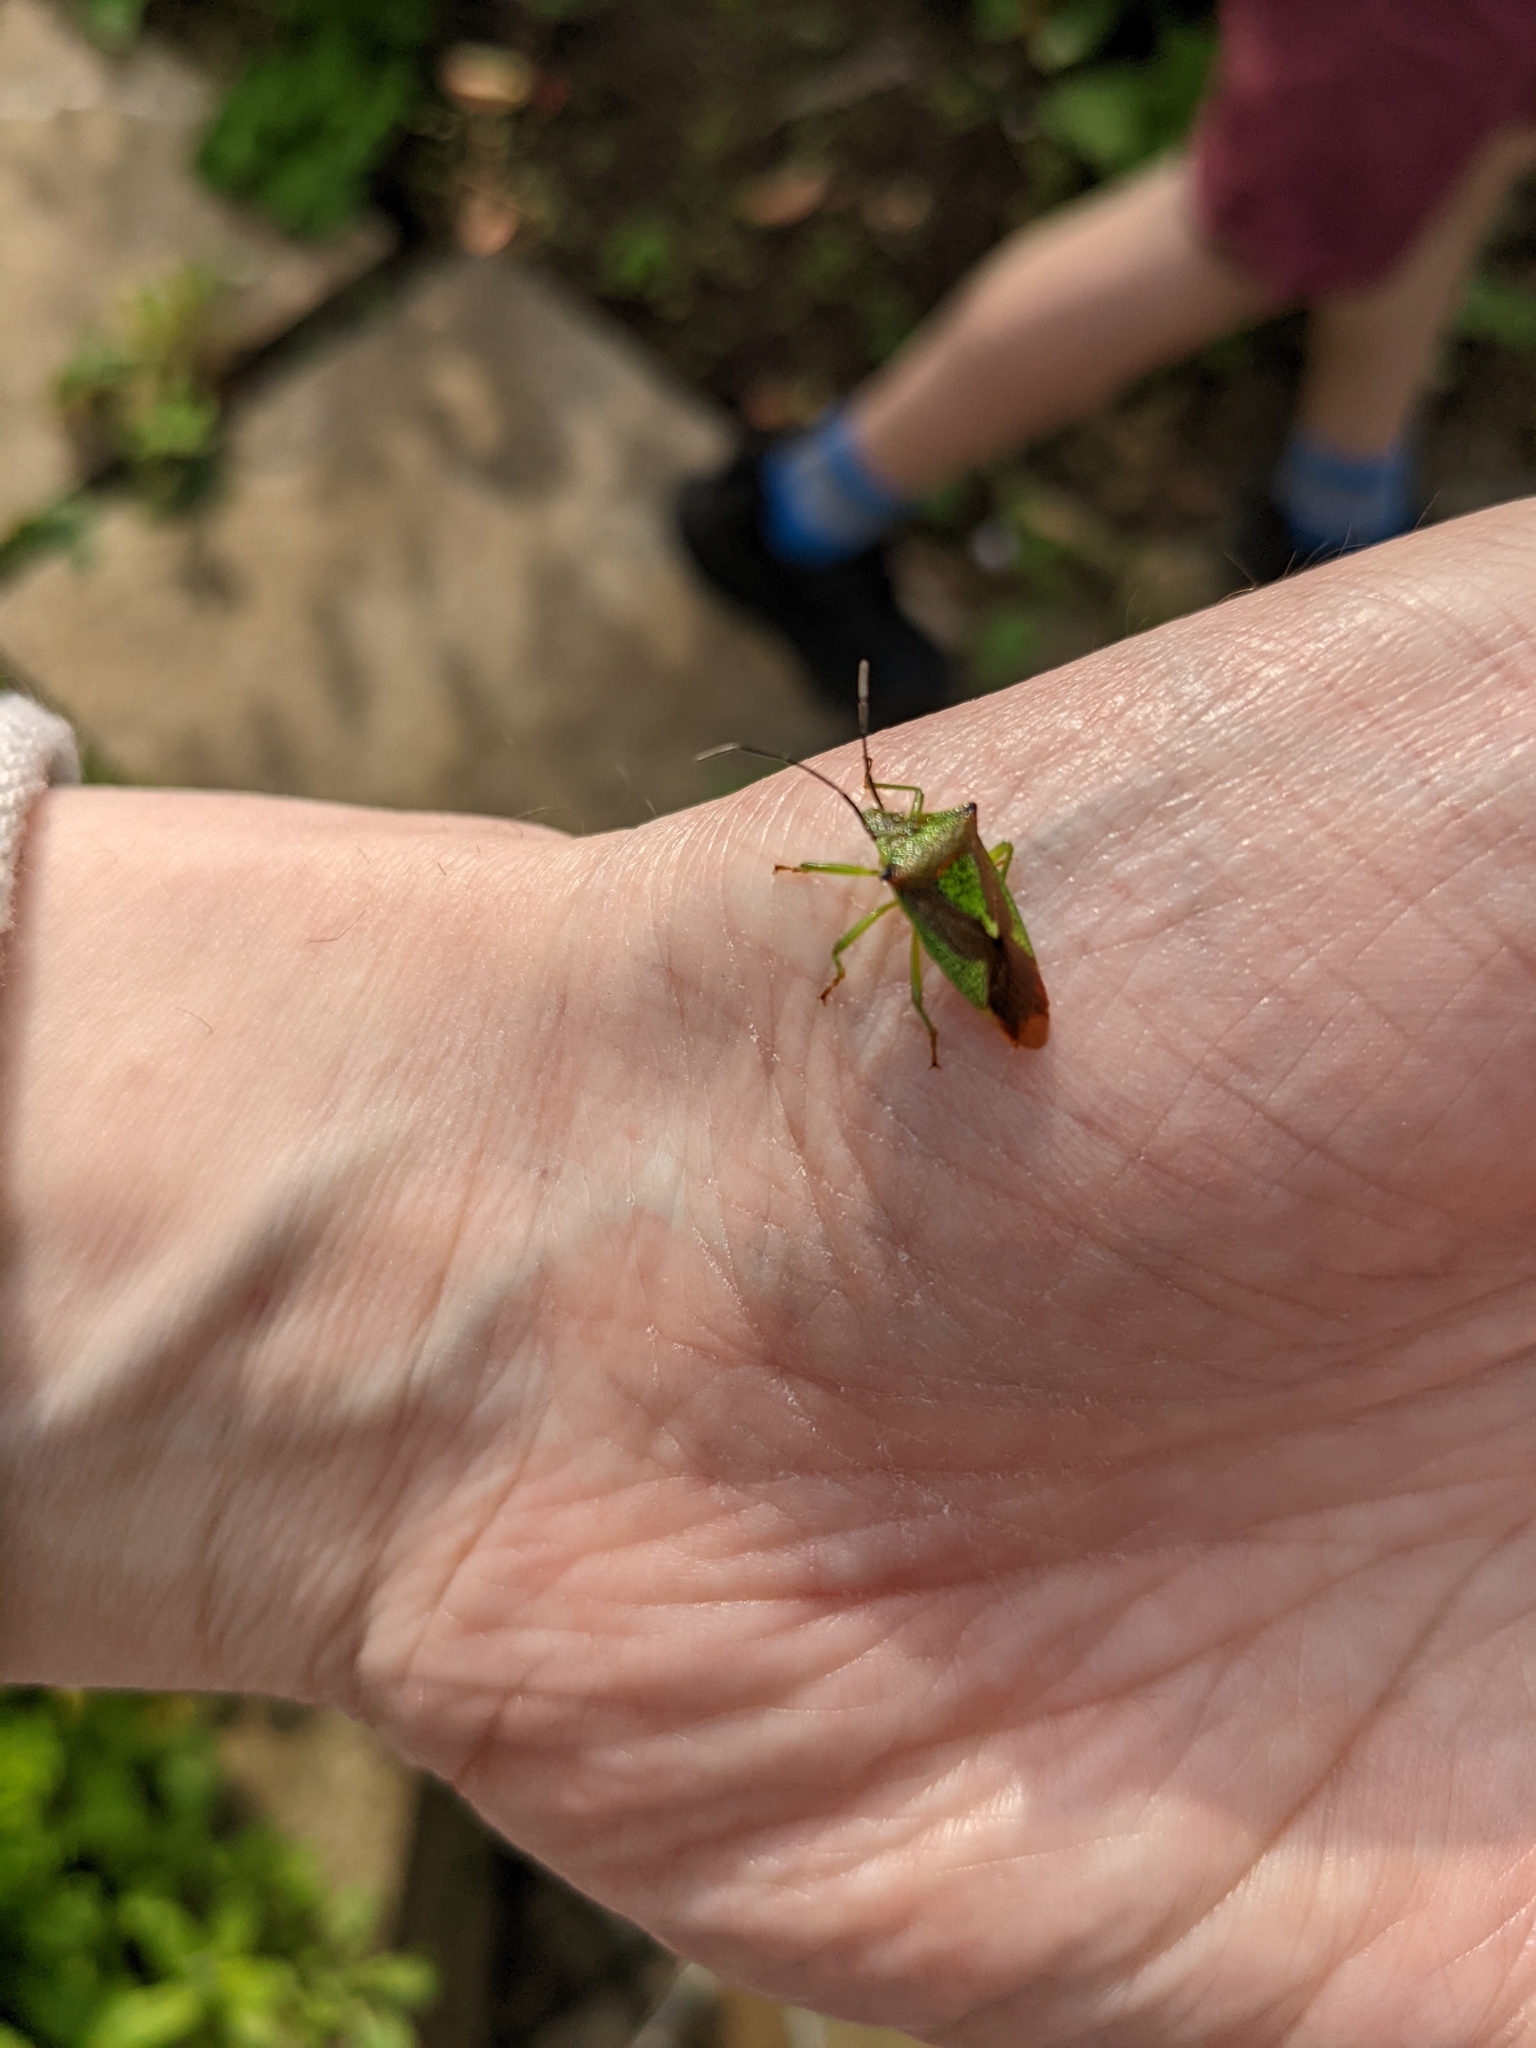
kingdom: Animalia
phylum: Arthropoda
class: Insecta
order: Hemiptera
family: Acanthosomatidae
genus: Acanthosoma
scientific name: Acanthosoma haemorrhoidale
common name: Hawthorn shieldbug
